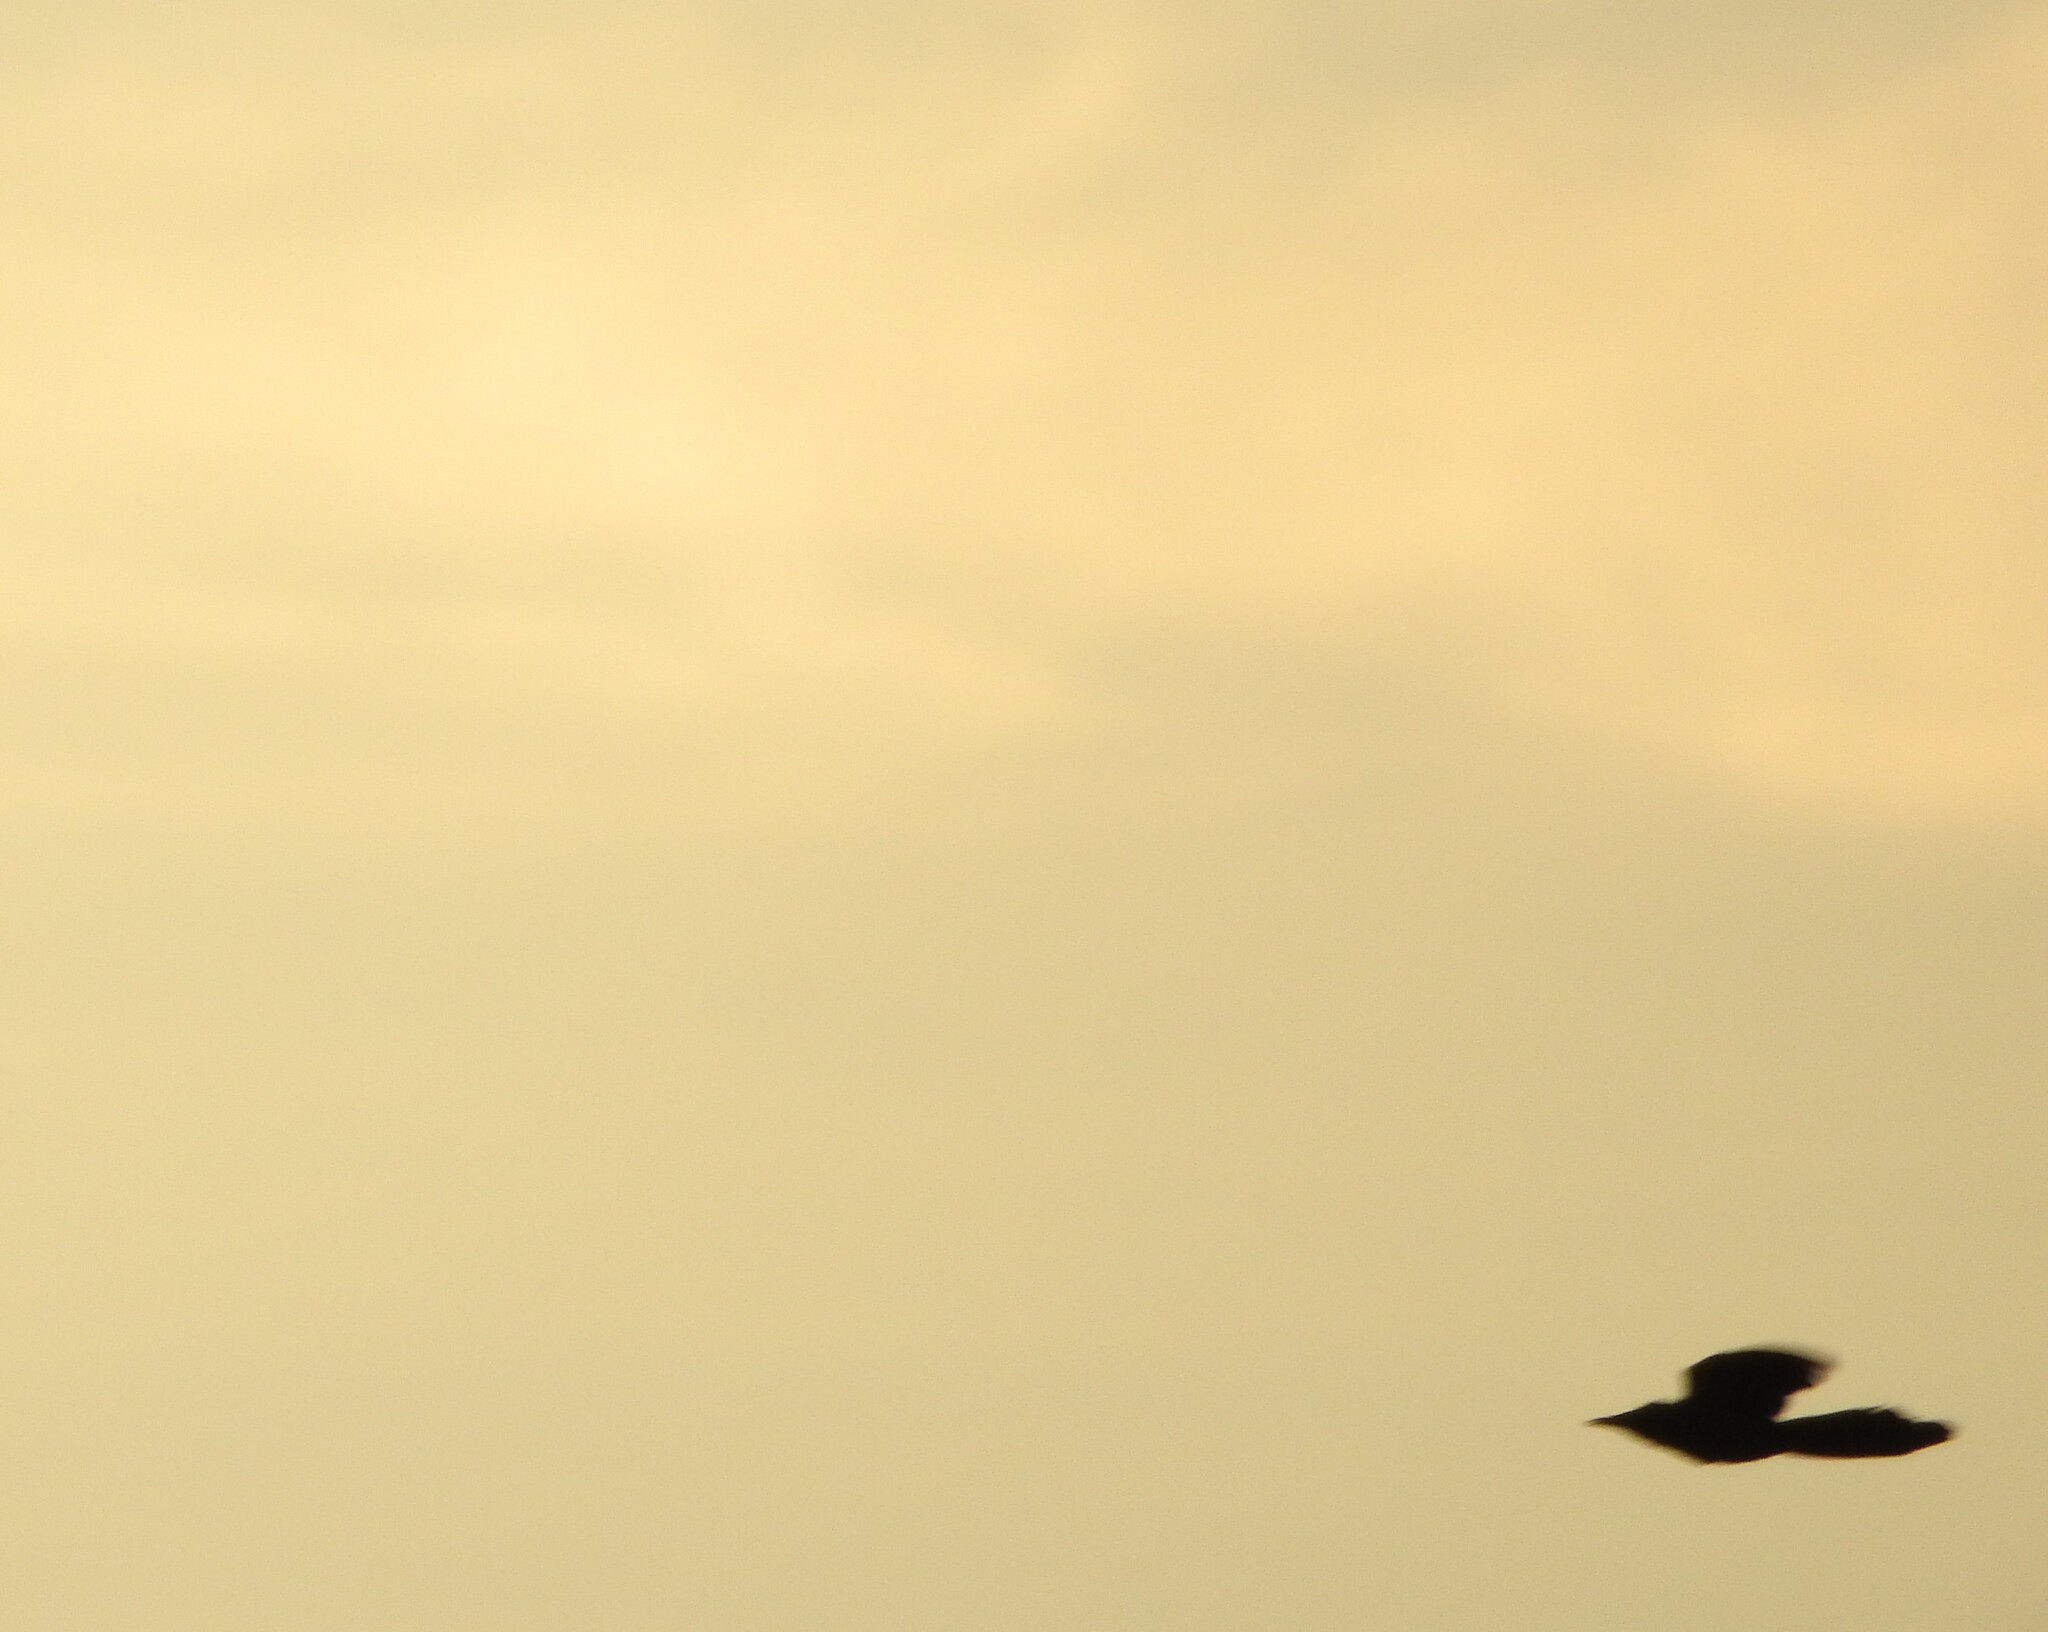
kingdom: Animalia
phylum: Chordata
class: Aves
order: Passeriformes
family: Icteridae
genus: Quiscalus
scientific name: Quiscalus mexicanus
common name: Great-tailed grackle
